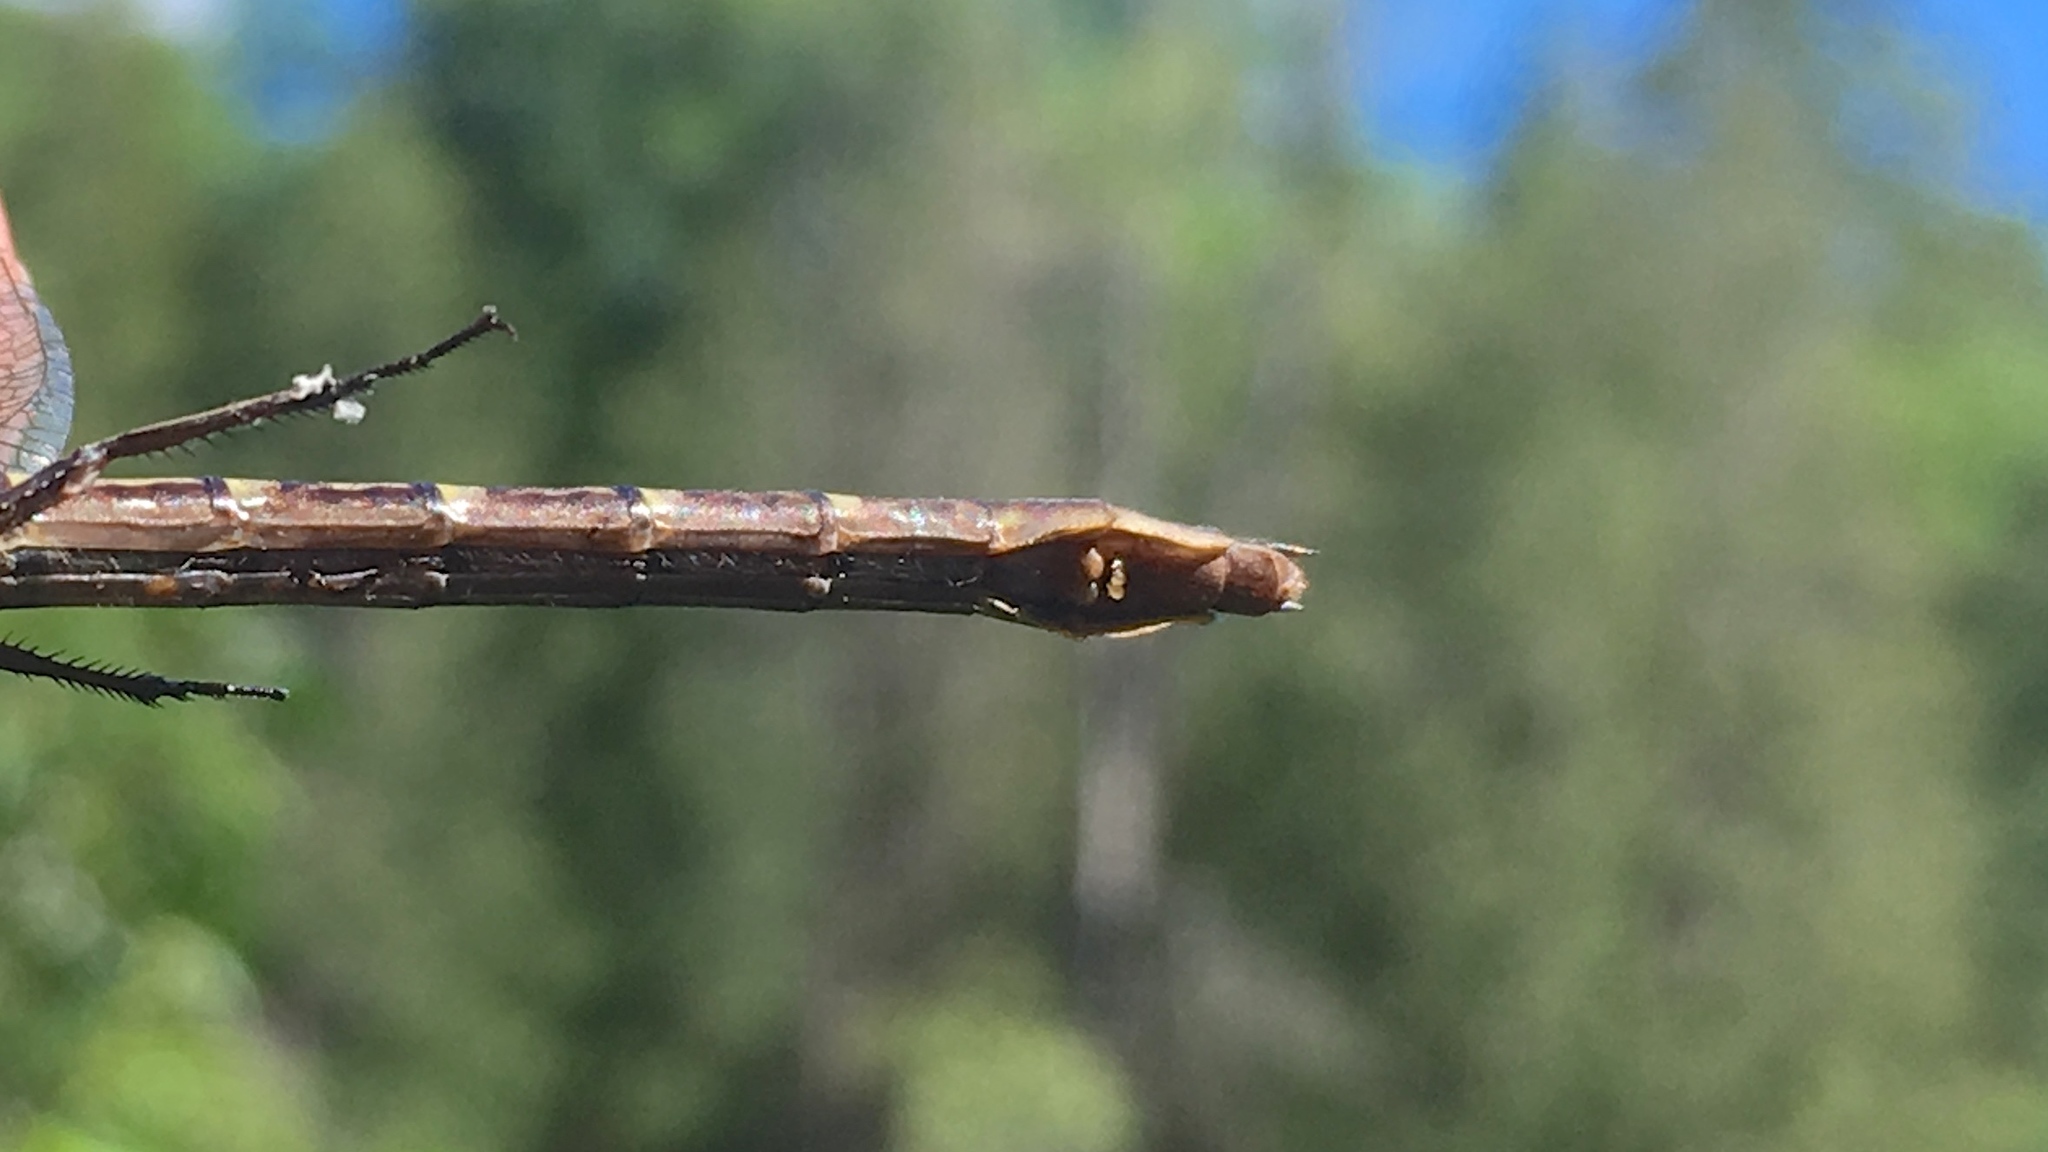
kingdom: Animalia
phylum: Arthropoda
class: Insecta
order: Odonata
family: Gomphidae
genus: Phanogomphus
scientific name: Phanogomphus lividus
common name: Ashy clubtail
